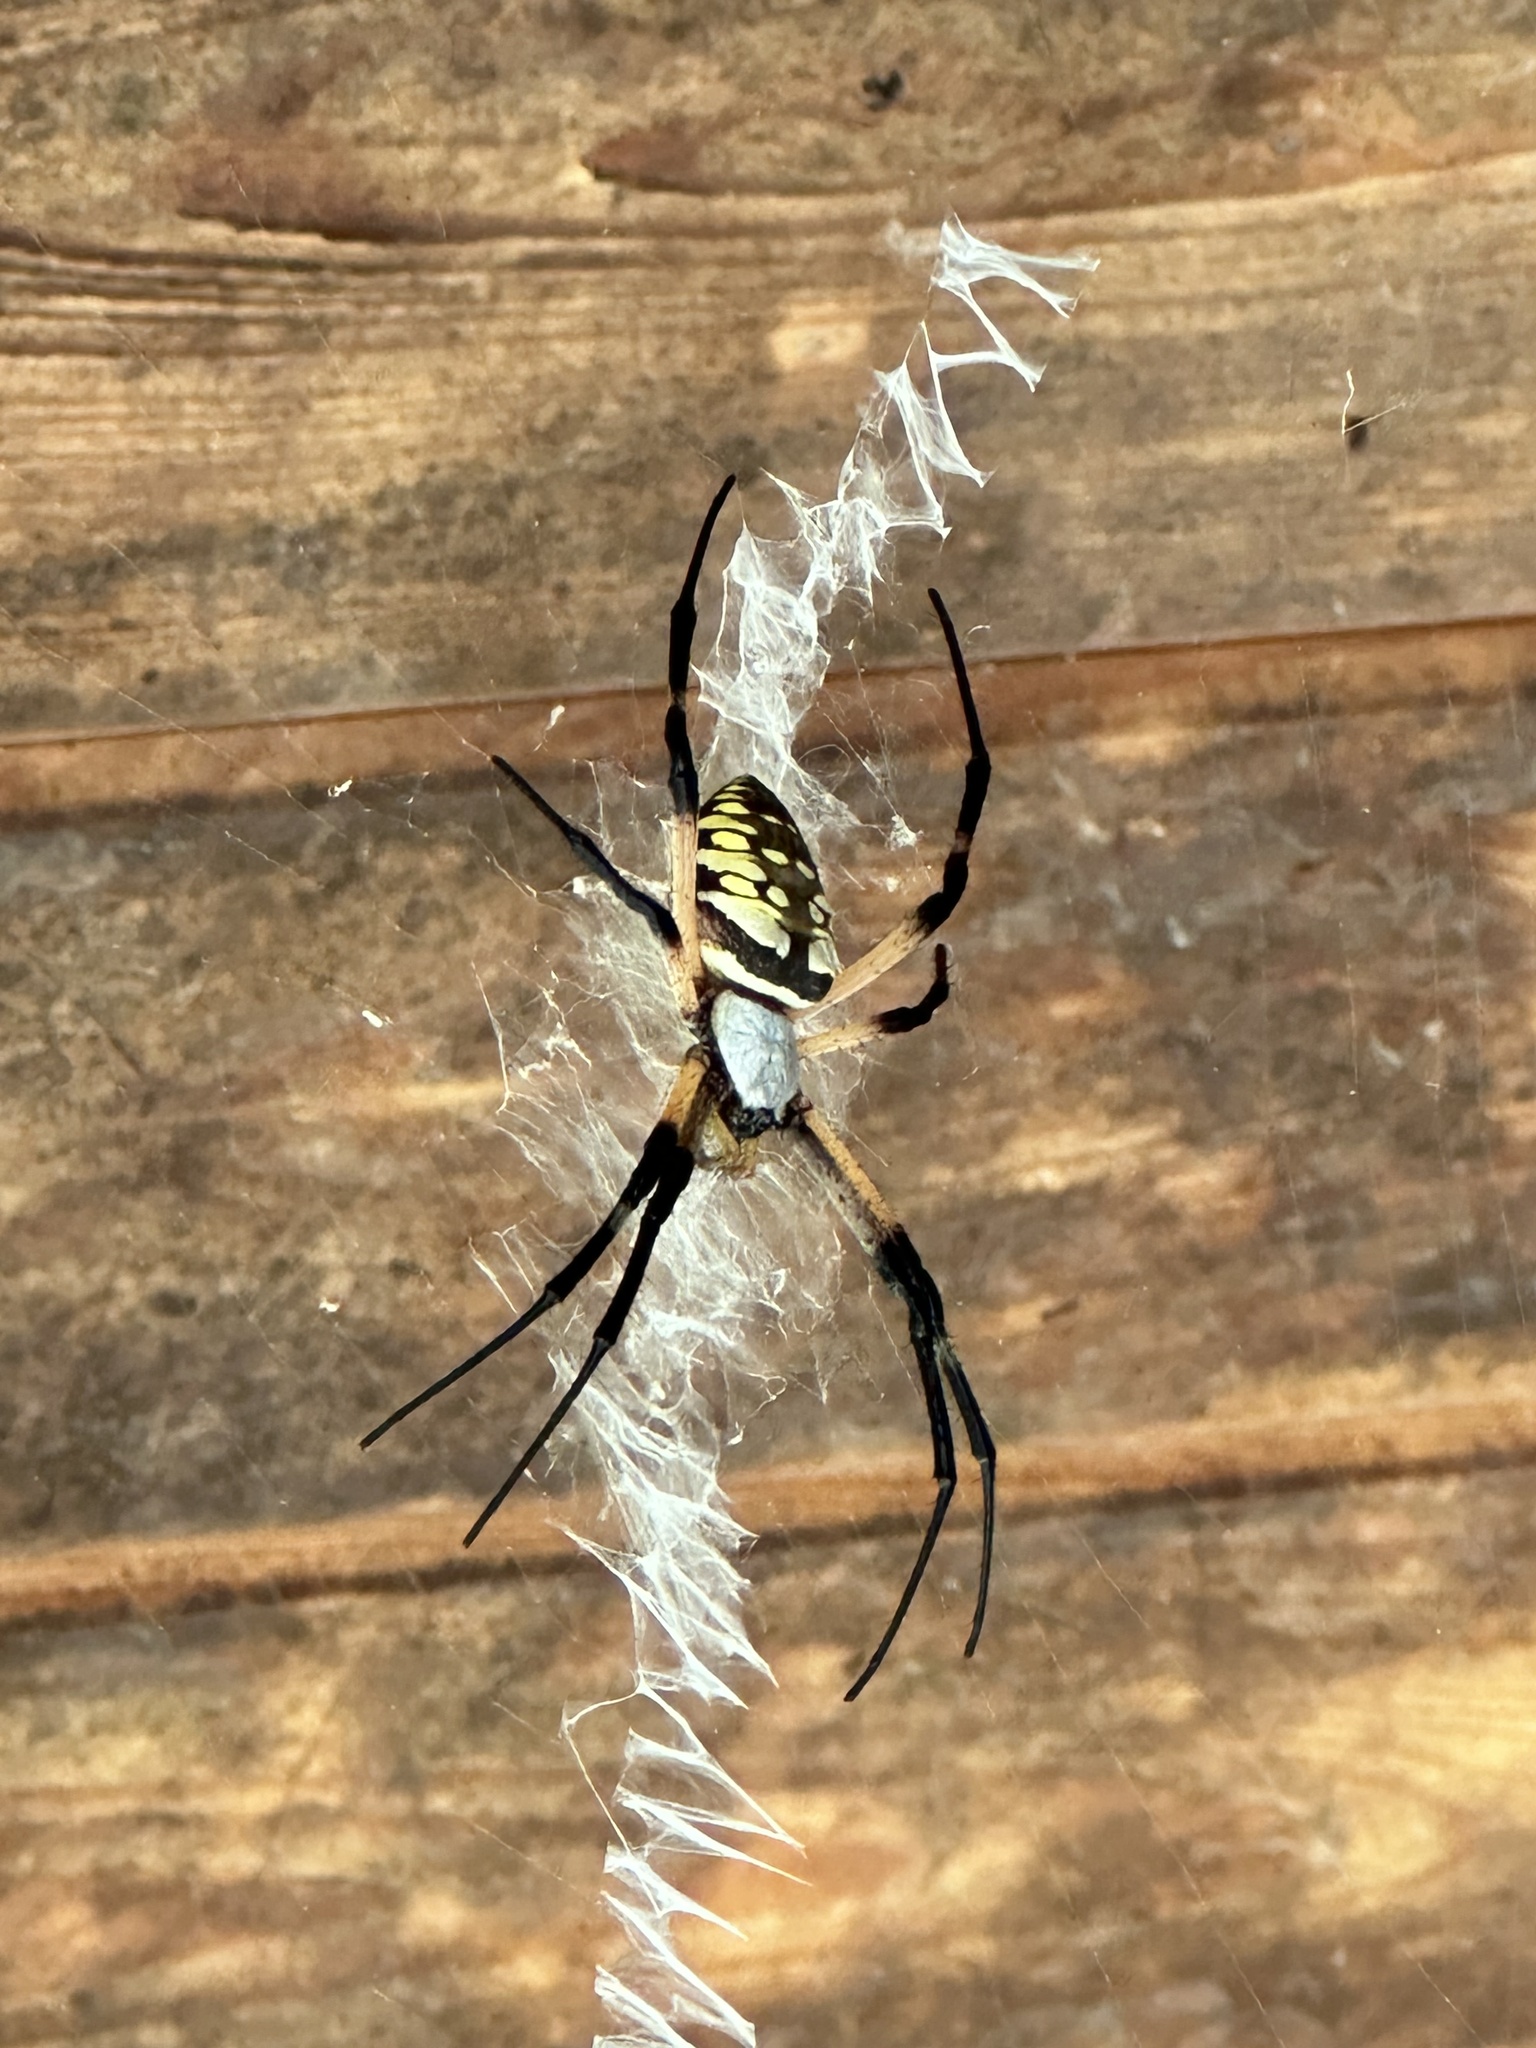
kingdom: Animalia
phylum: Arthropoda
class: Arachnida
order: Araneae
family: Araneidae
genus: Argiope
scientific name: Argiope aurantia
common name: Orb weavers
